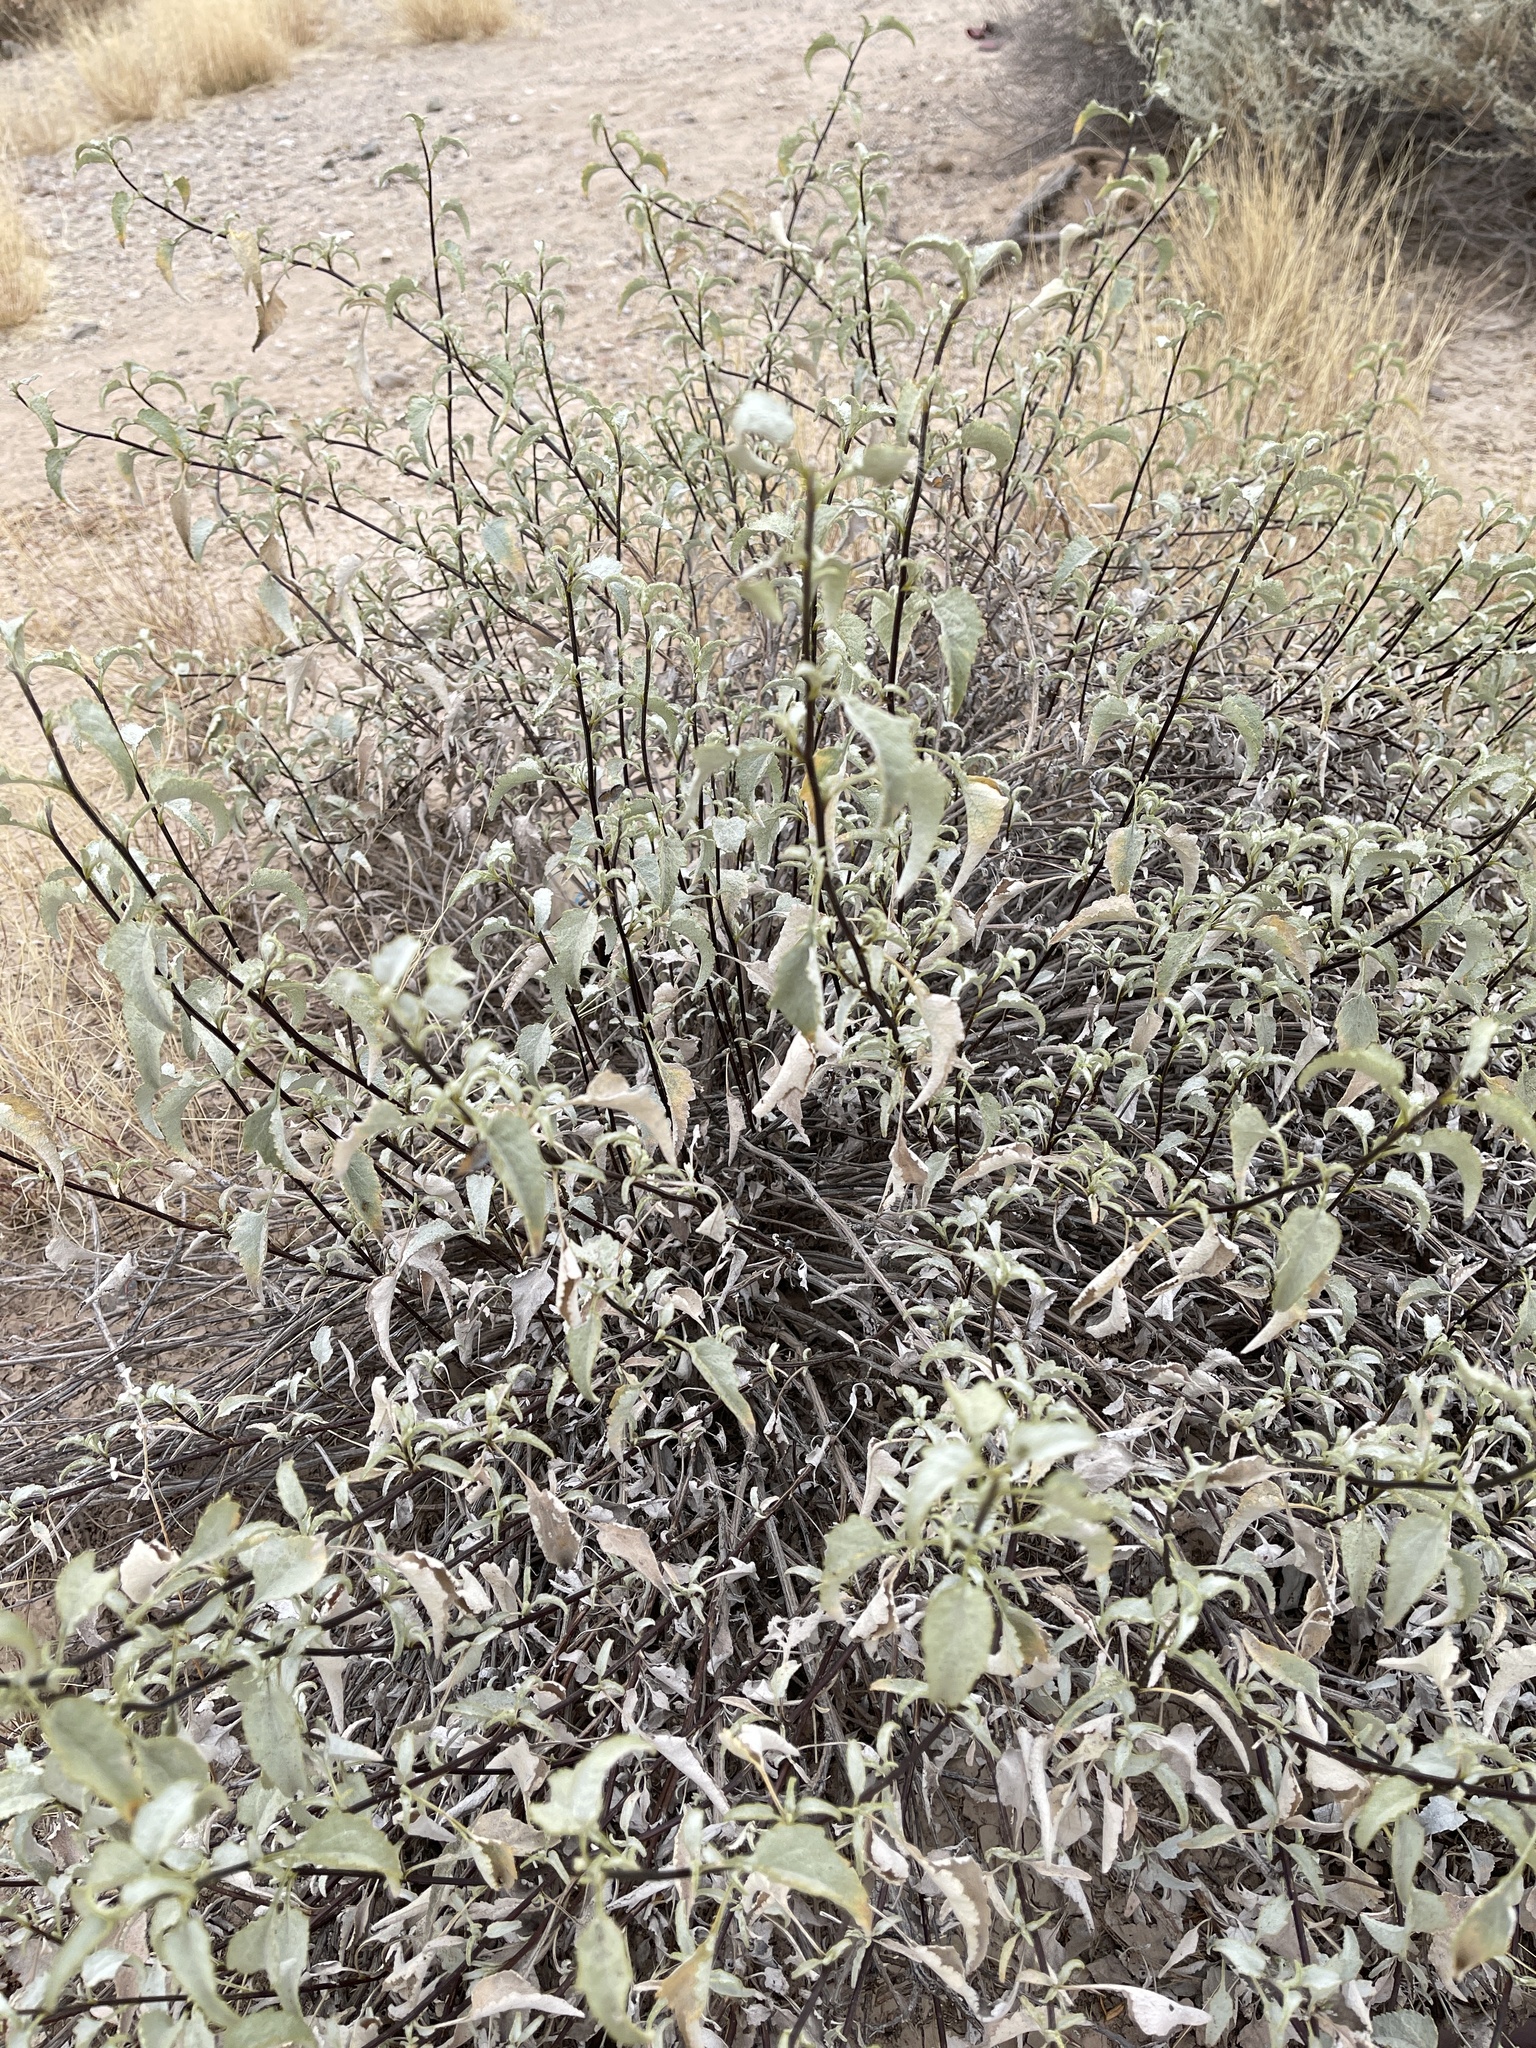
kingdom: Plantae
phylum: Tracheophyta
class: Magnoliopsida
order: Asterales
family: Asteraceae
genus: Ambrosia
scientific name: Ambrosia deltoidea
